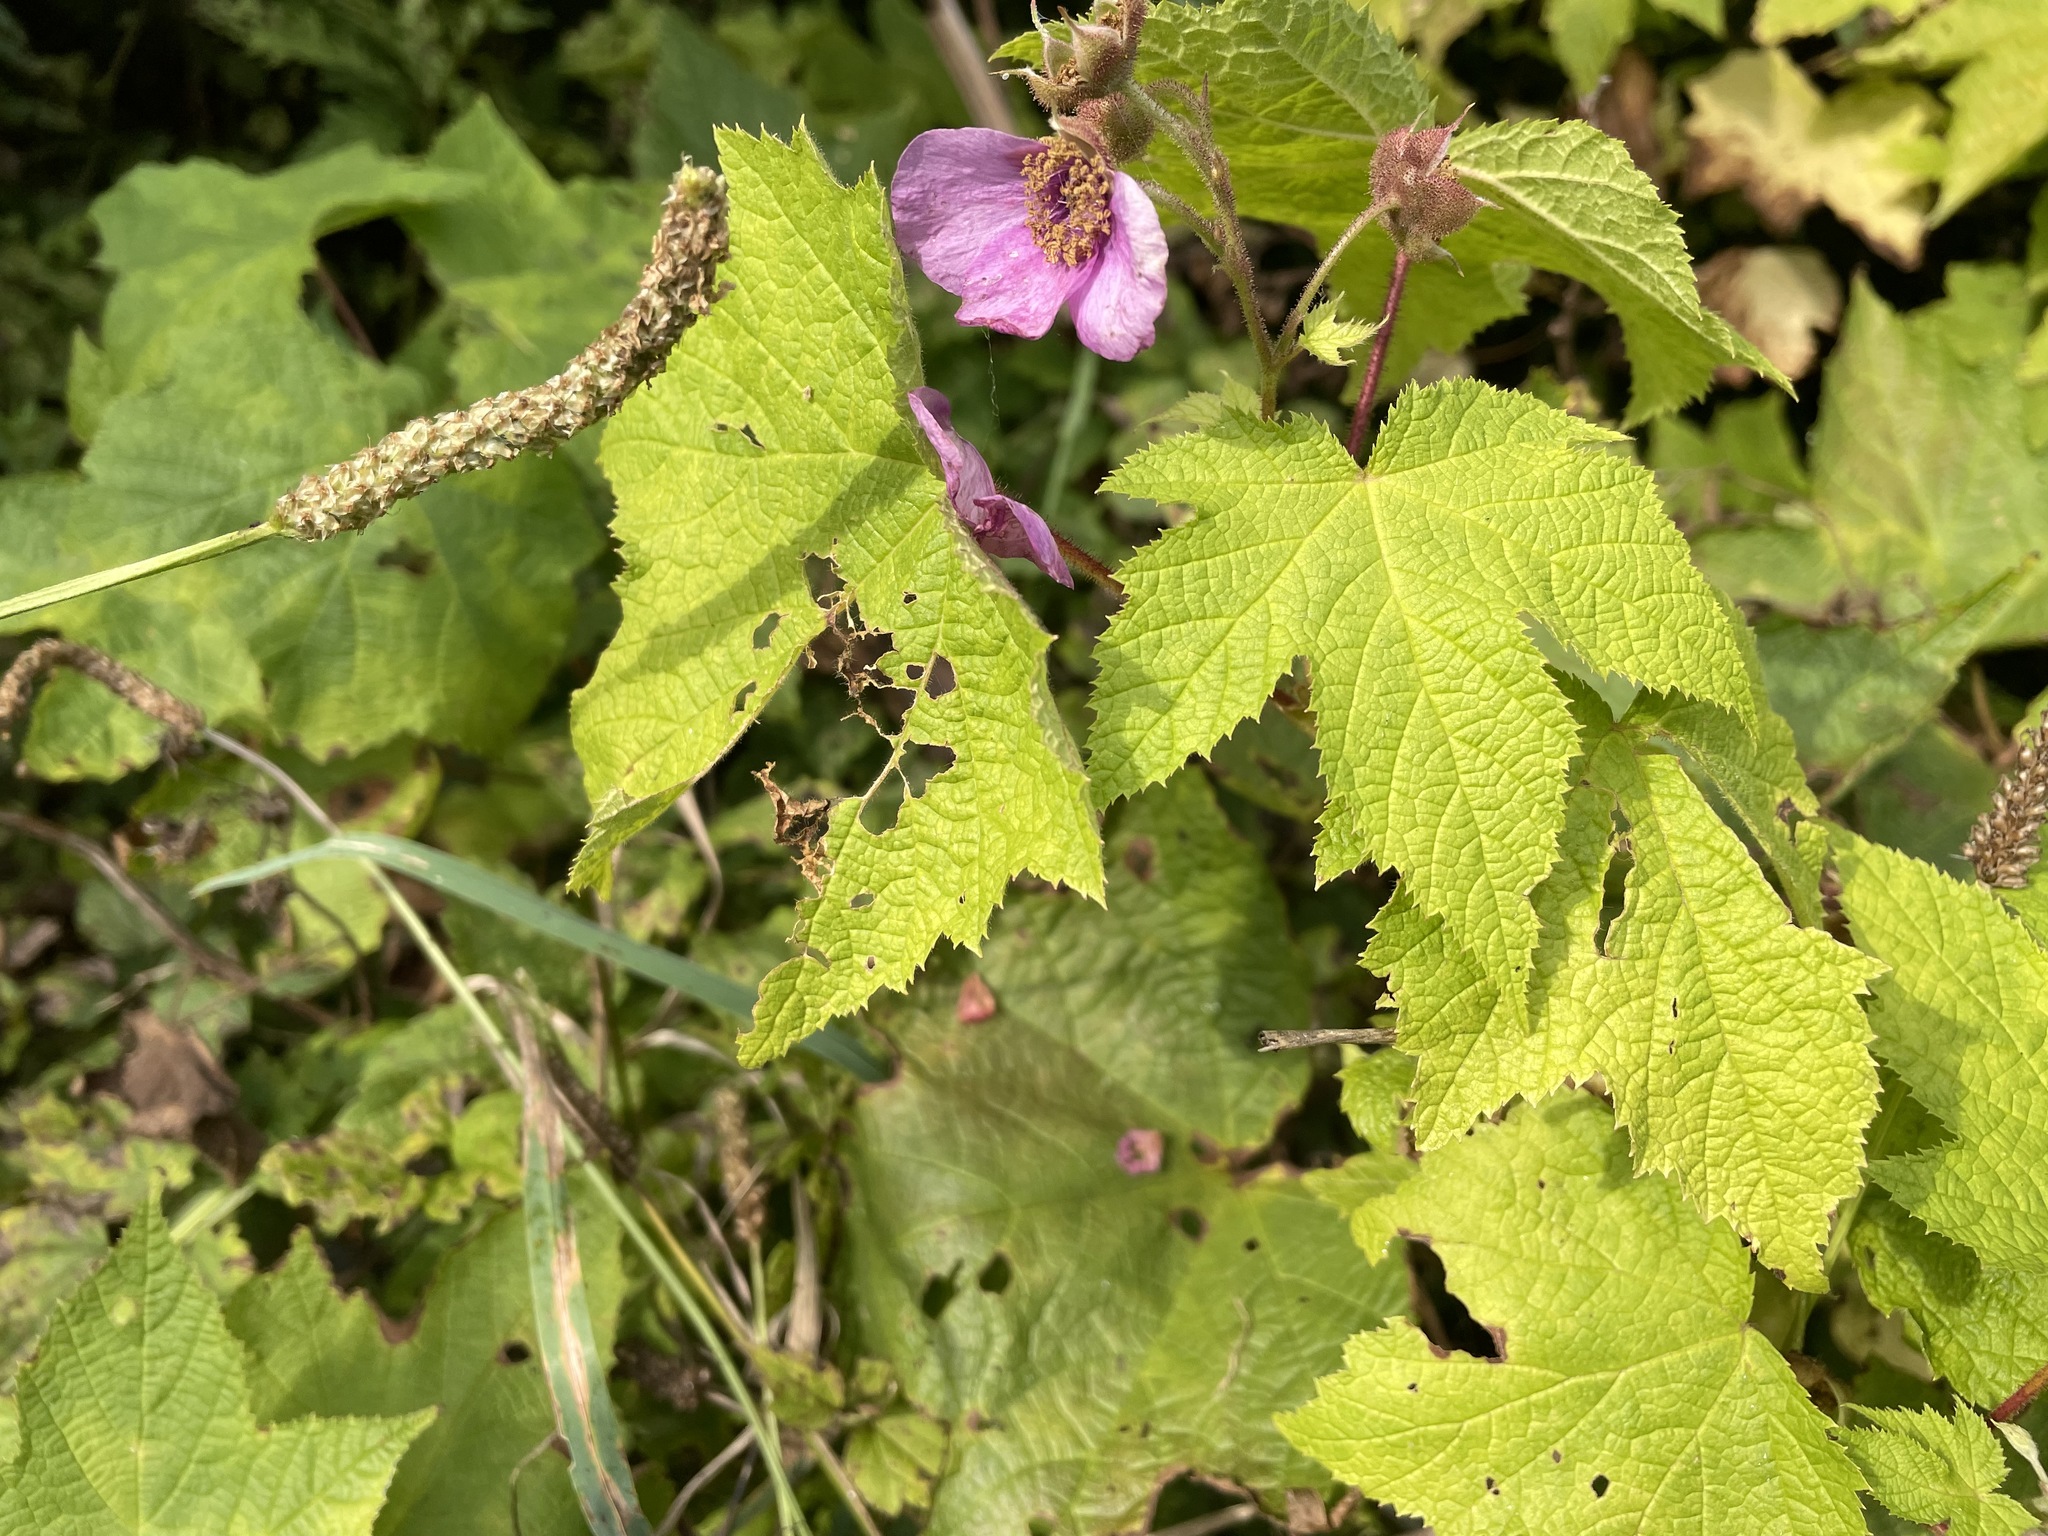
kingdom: Plantae
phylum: Tracheophyta
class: Magnoliopsida
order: Rosales
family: Rosaceae
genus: Rubus
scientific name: Rubus odoratus
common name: Purple-flowered raspberry
